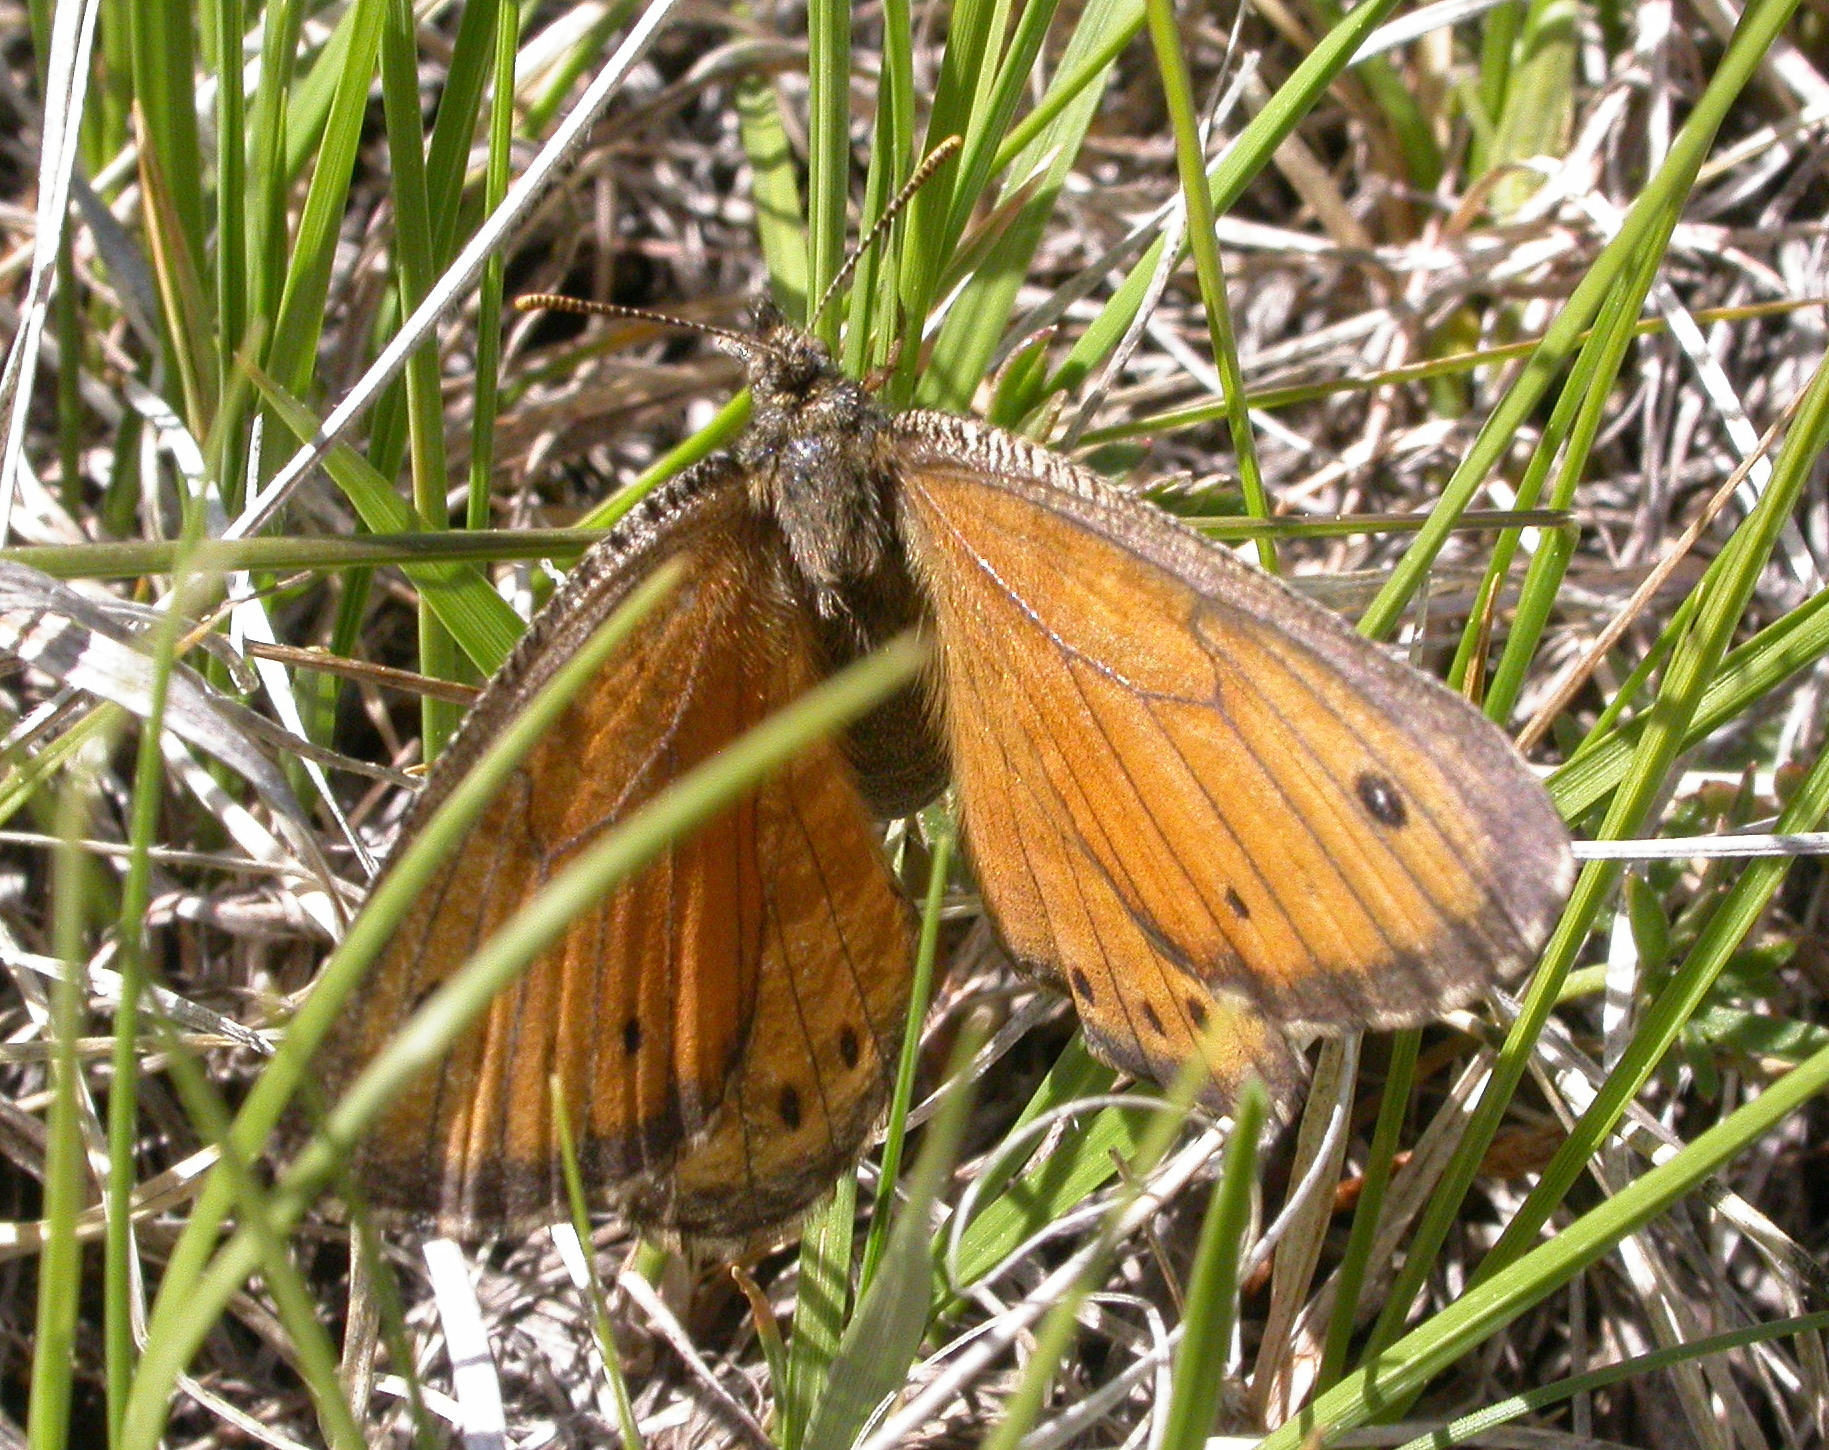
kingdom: Animalia
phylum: Arthropoda
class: Insecta
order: Lepidoptera
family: Nymphalidae
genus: Oeneis
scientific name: Oeneis uhleri
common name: Uhler's arctic
